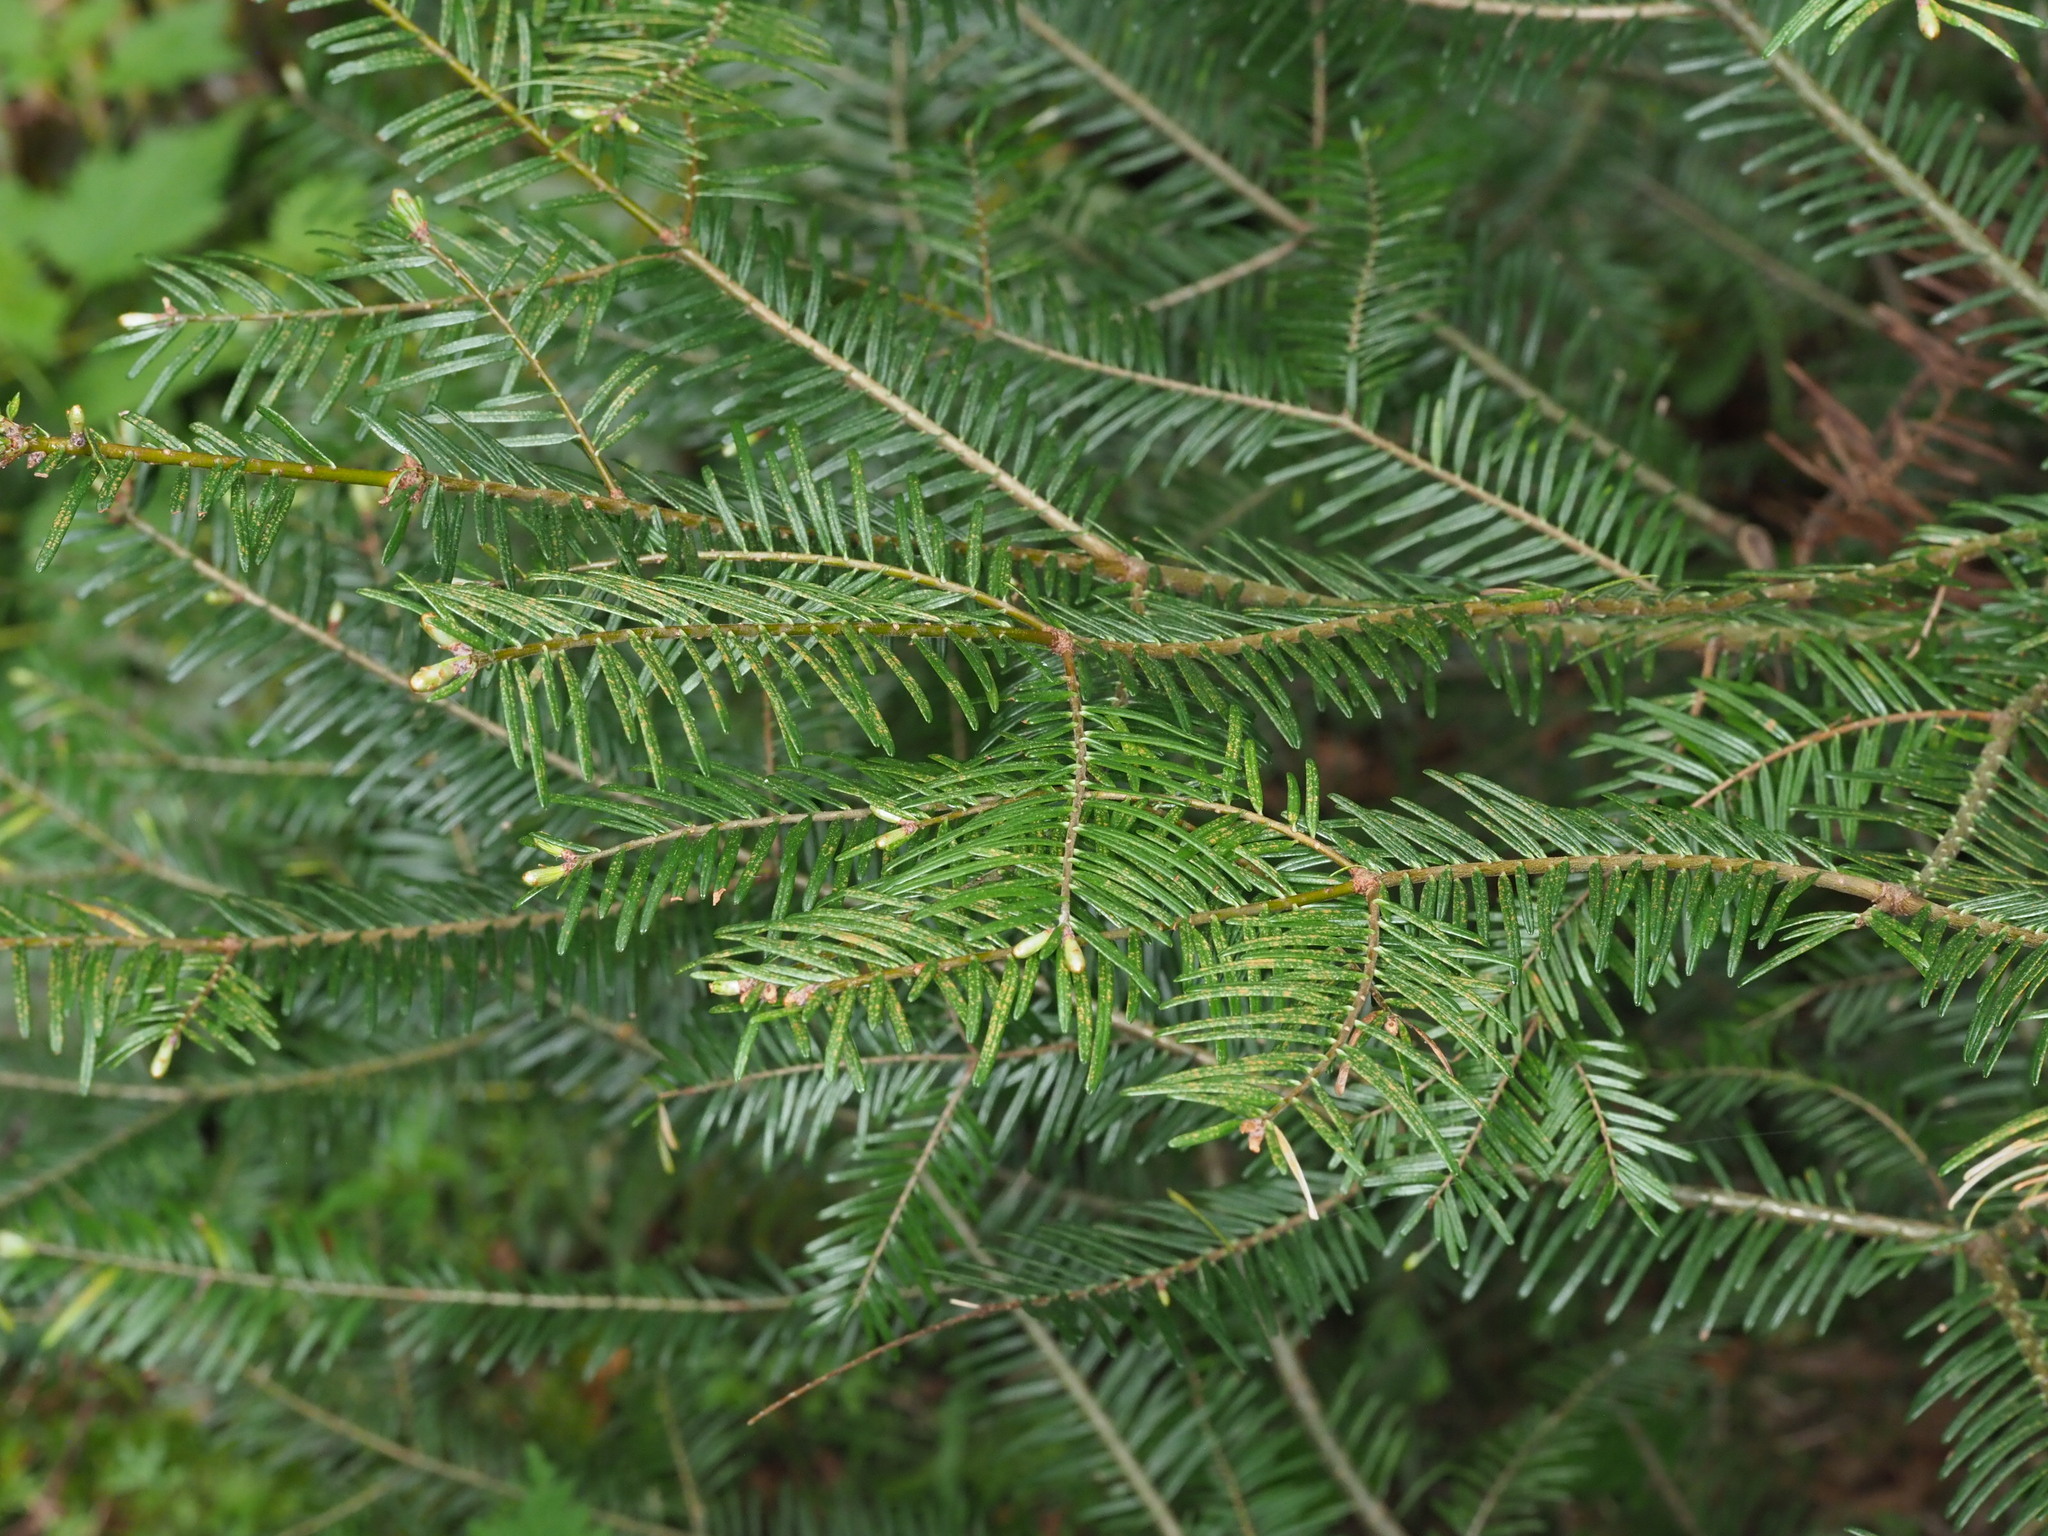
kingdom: Plantae
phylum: Tracheophyta
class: Pinopsida
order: Pinales
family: Pinaceae
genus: Abies
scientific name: Abies grandis
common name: Giant fir
